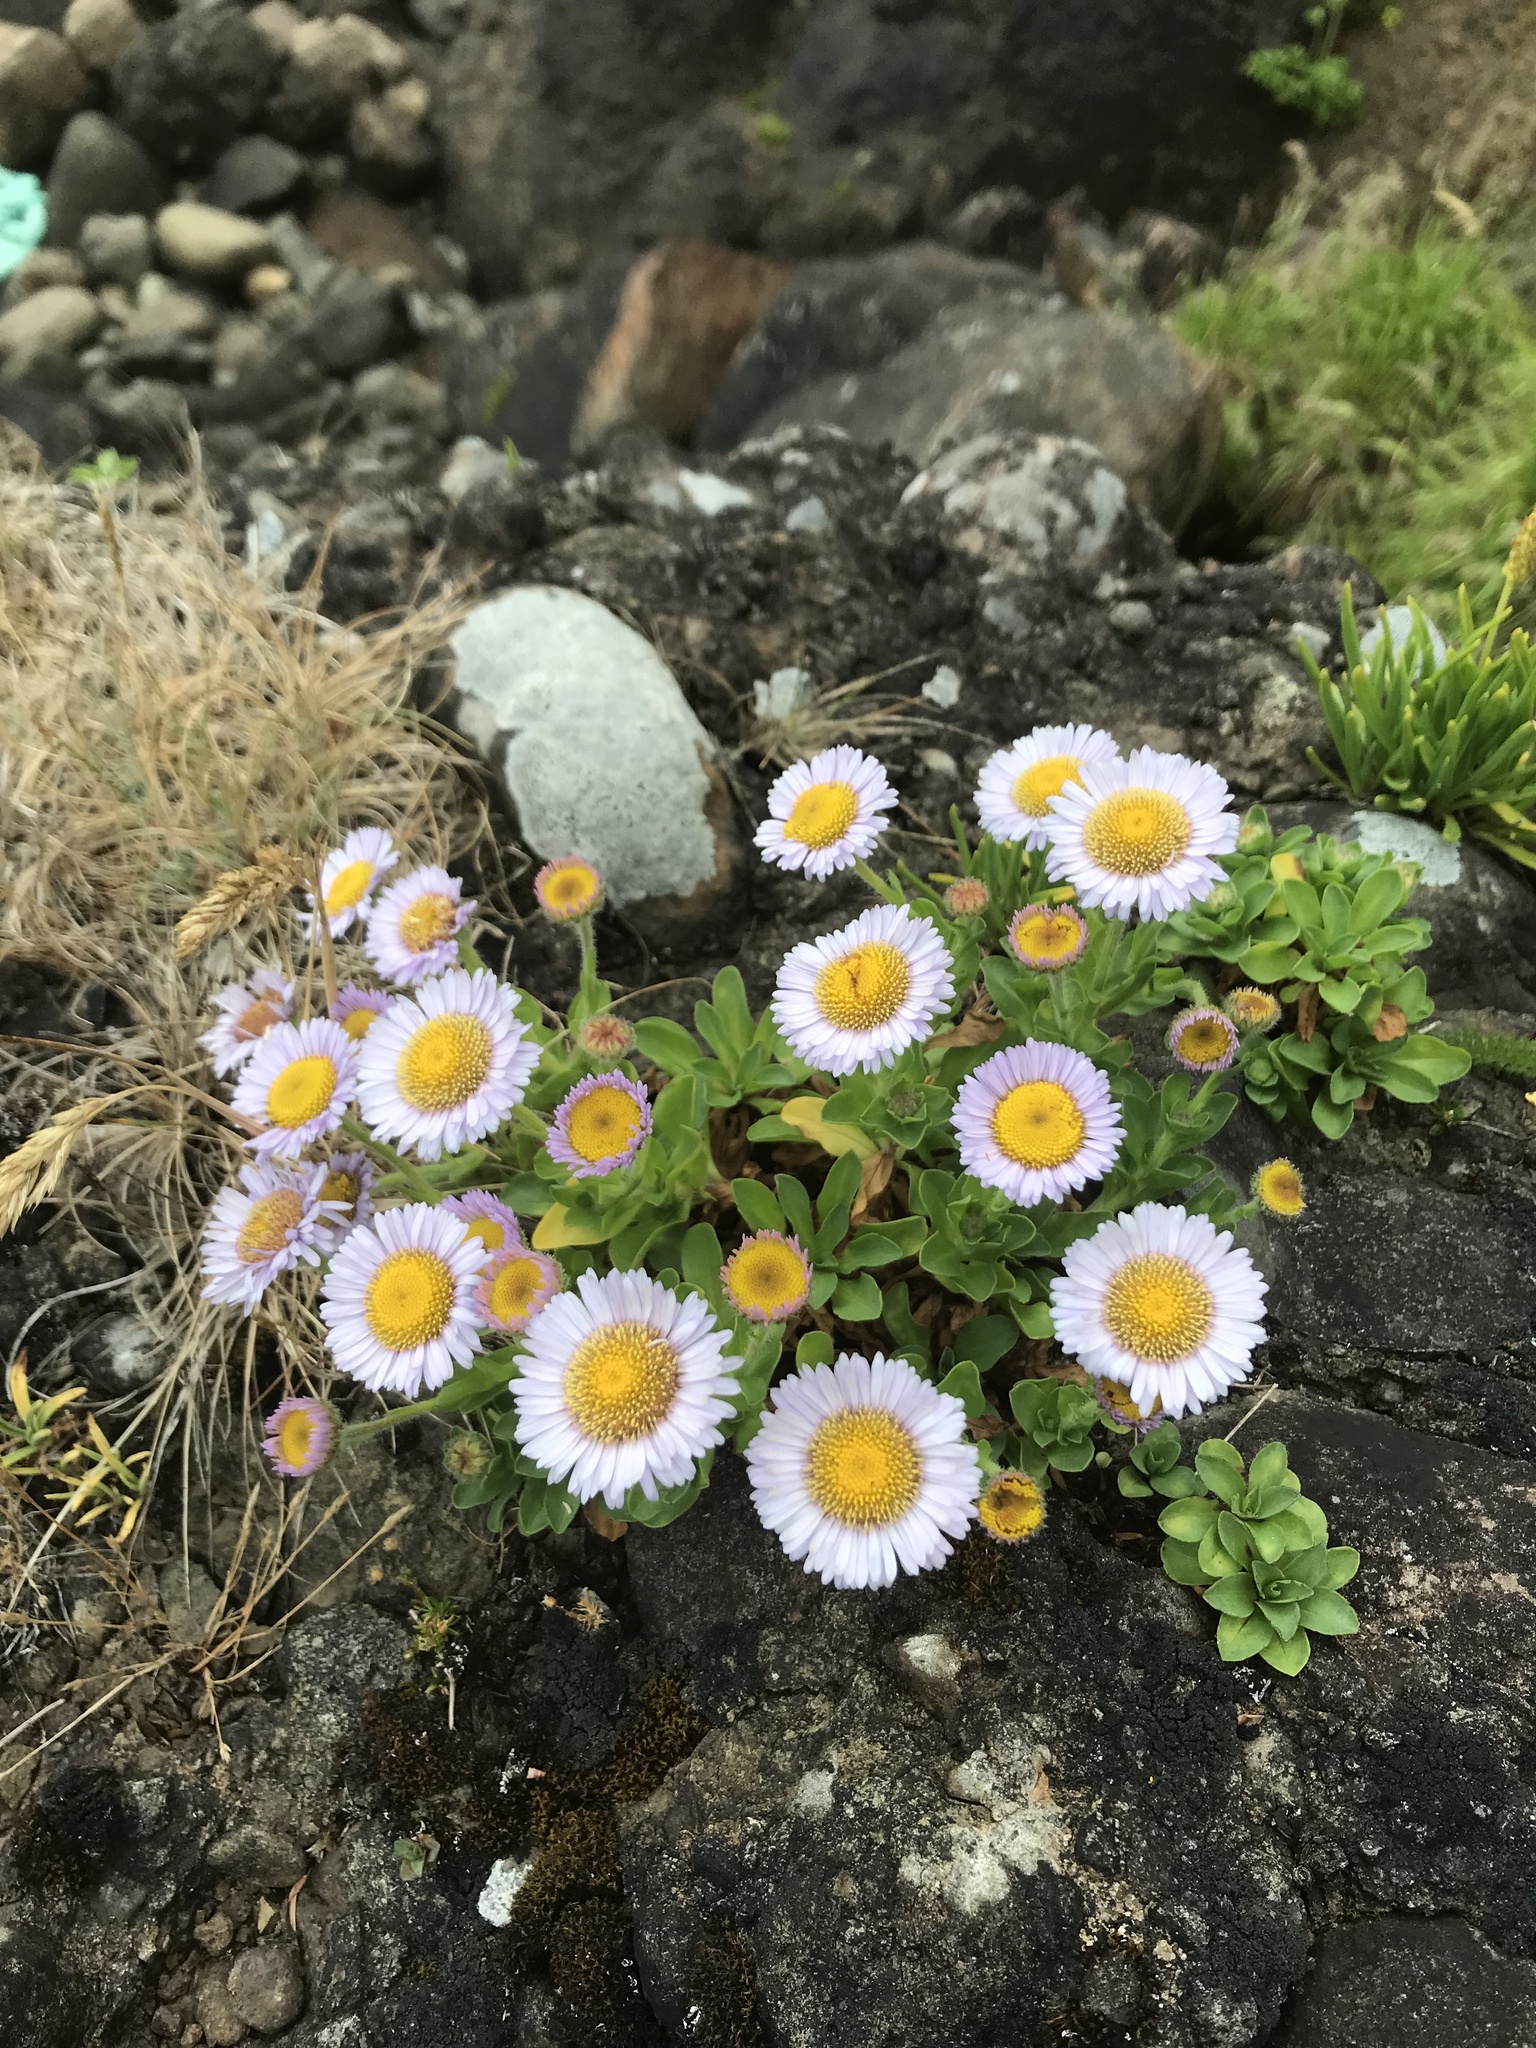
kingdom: Plantae
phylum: Tracheophyta
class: Magnoliopsida
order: Asterales
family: Asteraceae
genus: Erigeron
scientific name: Erigeron glaucus
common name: Seaside daisy
